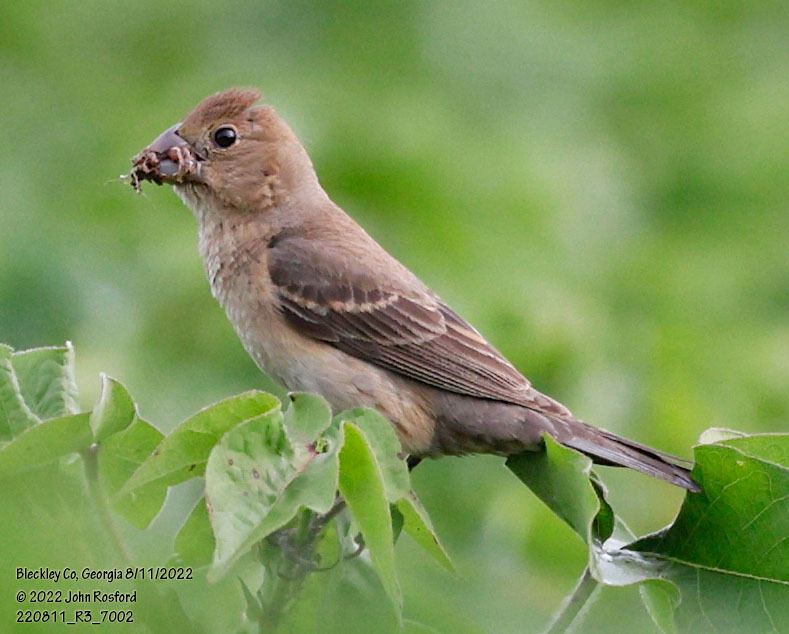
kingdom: Animalia
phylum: Chordata
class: Aves
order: Passeriformes
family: Cardinalidae
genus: Passerina
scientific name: Passerina caerulea
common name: Blue grosbeak
